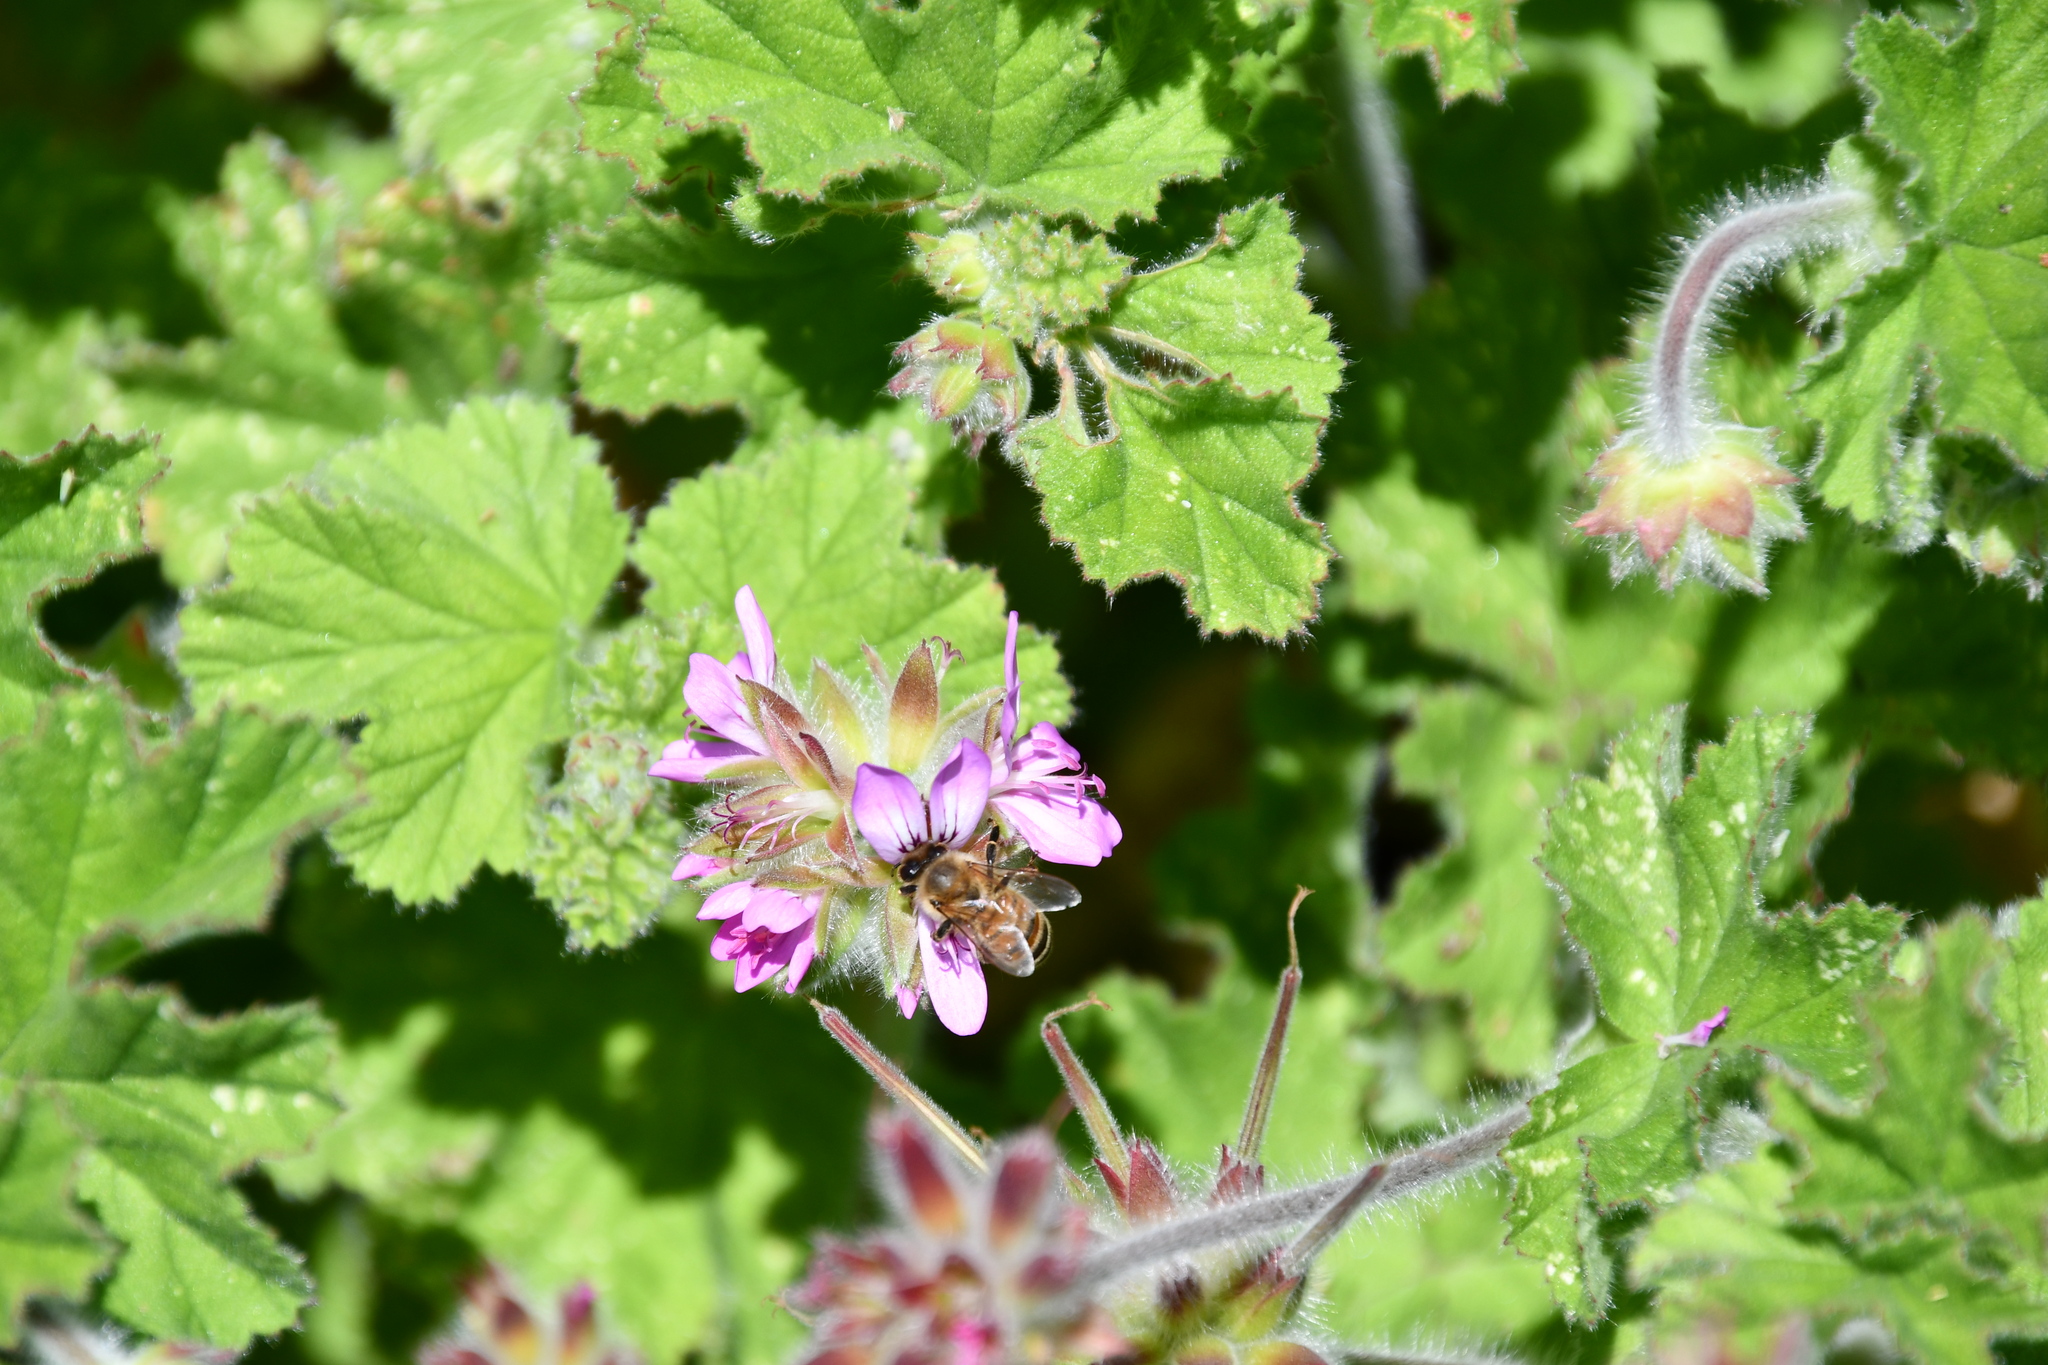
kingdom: Animalia
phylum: Arthropoda
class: Insecta
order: Hymenoptera
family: Apidae
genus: Apis
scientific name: Apis mellifera
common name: Honey bee
